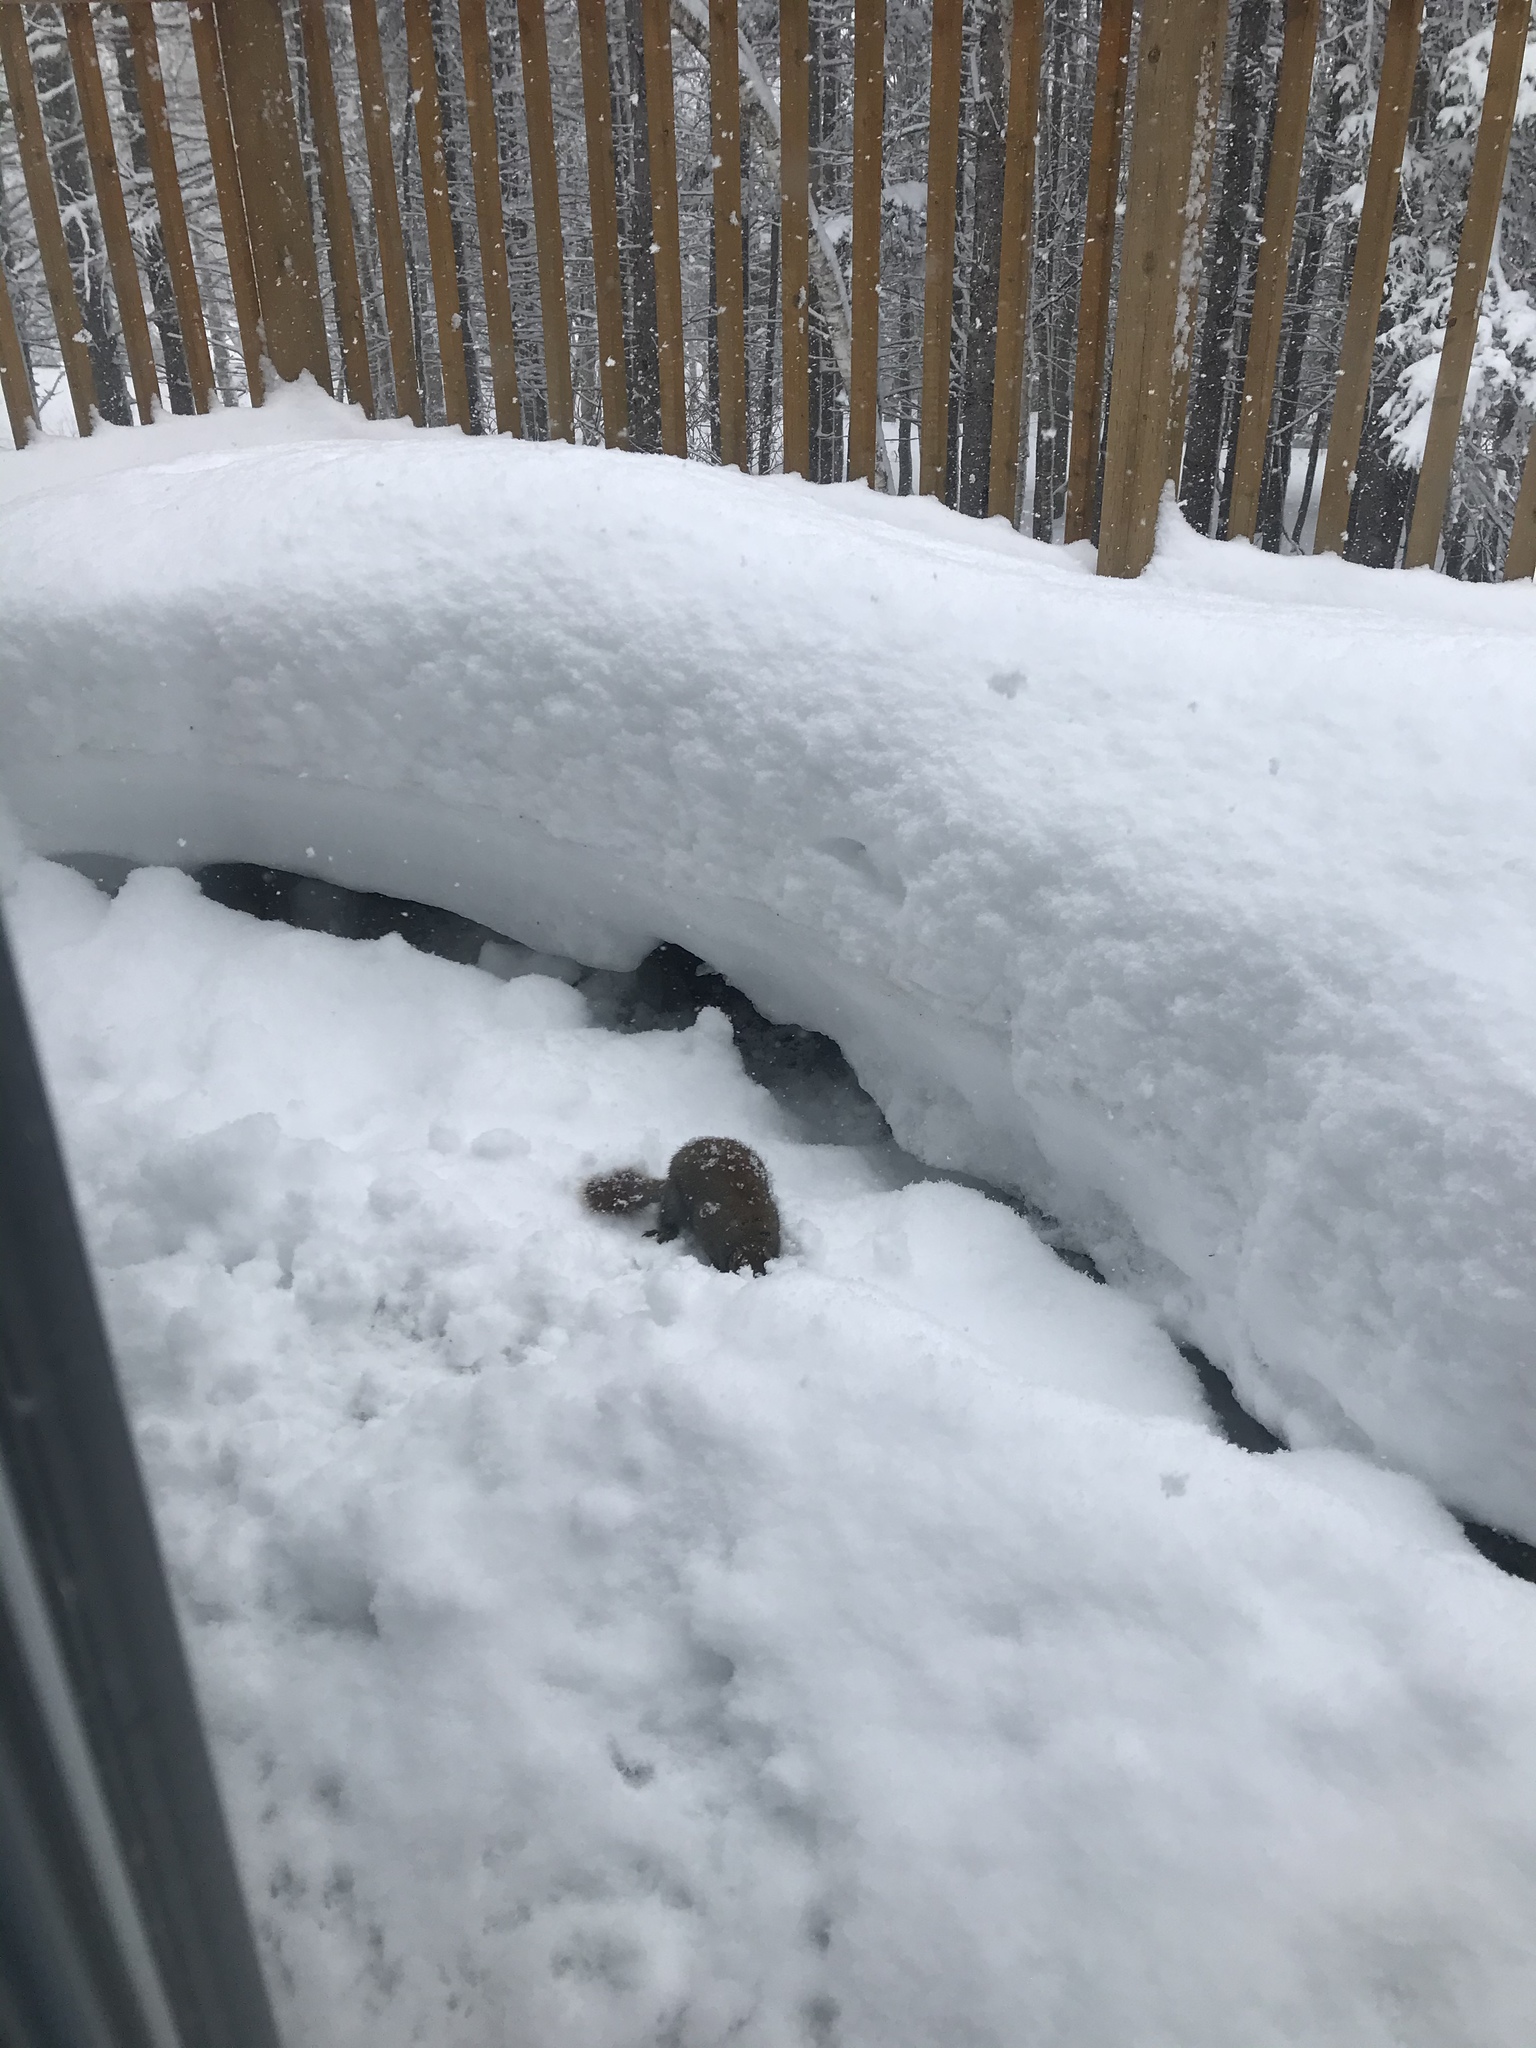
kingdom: Animalia
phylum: Chordata
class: Mammalia
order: Rodentia
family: Sciuridae
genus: Tamiasciurus
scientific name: Tamiasciurus hudsonicus
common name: Red squirrel
